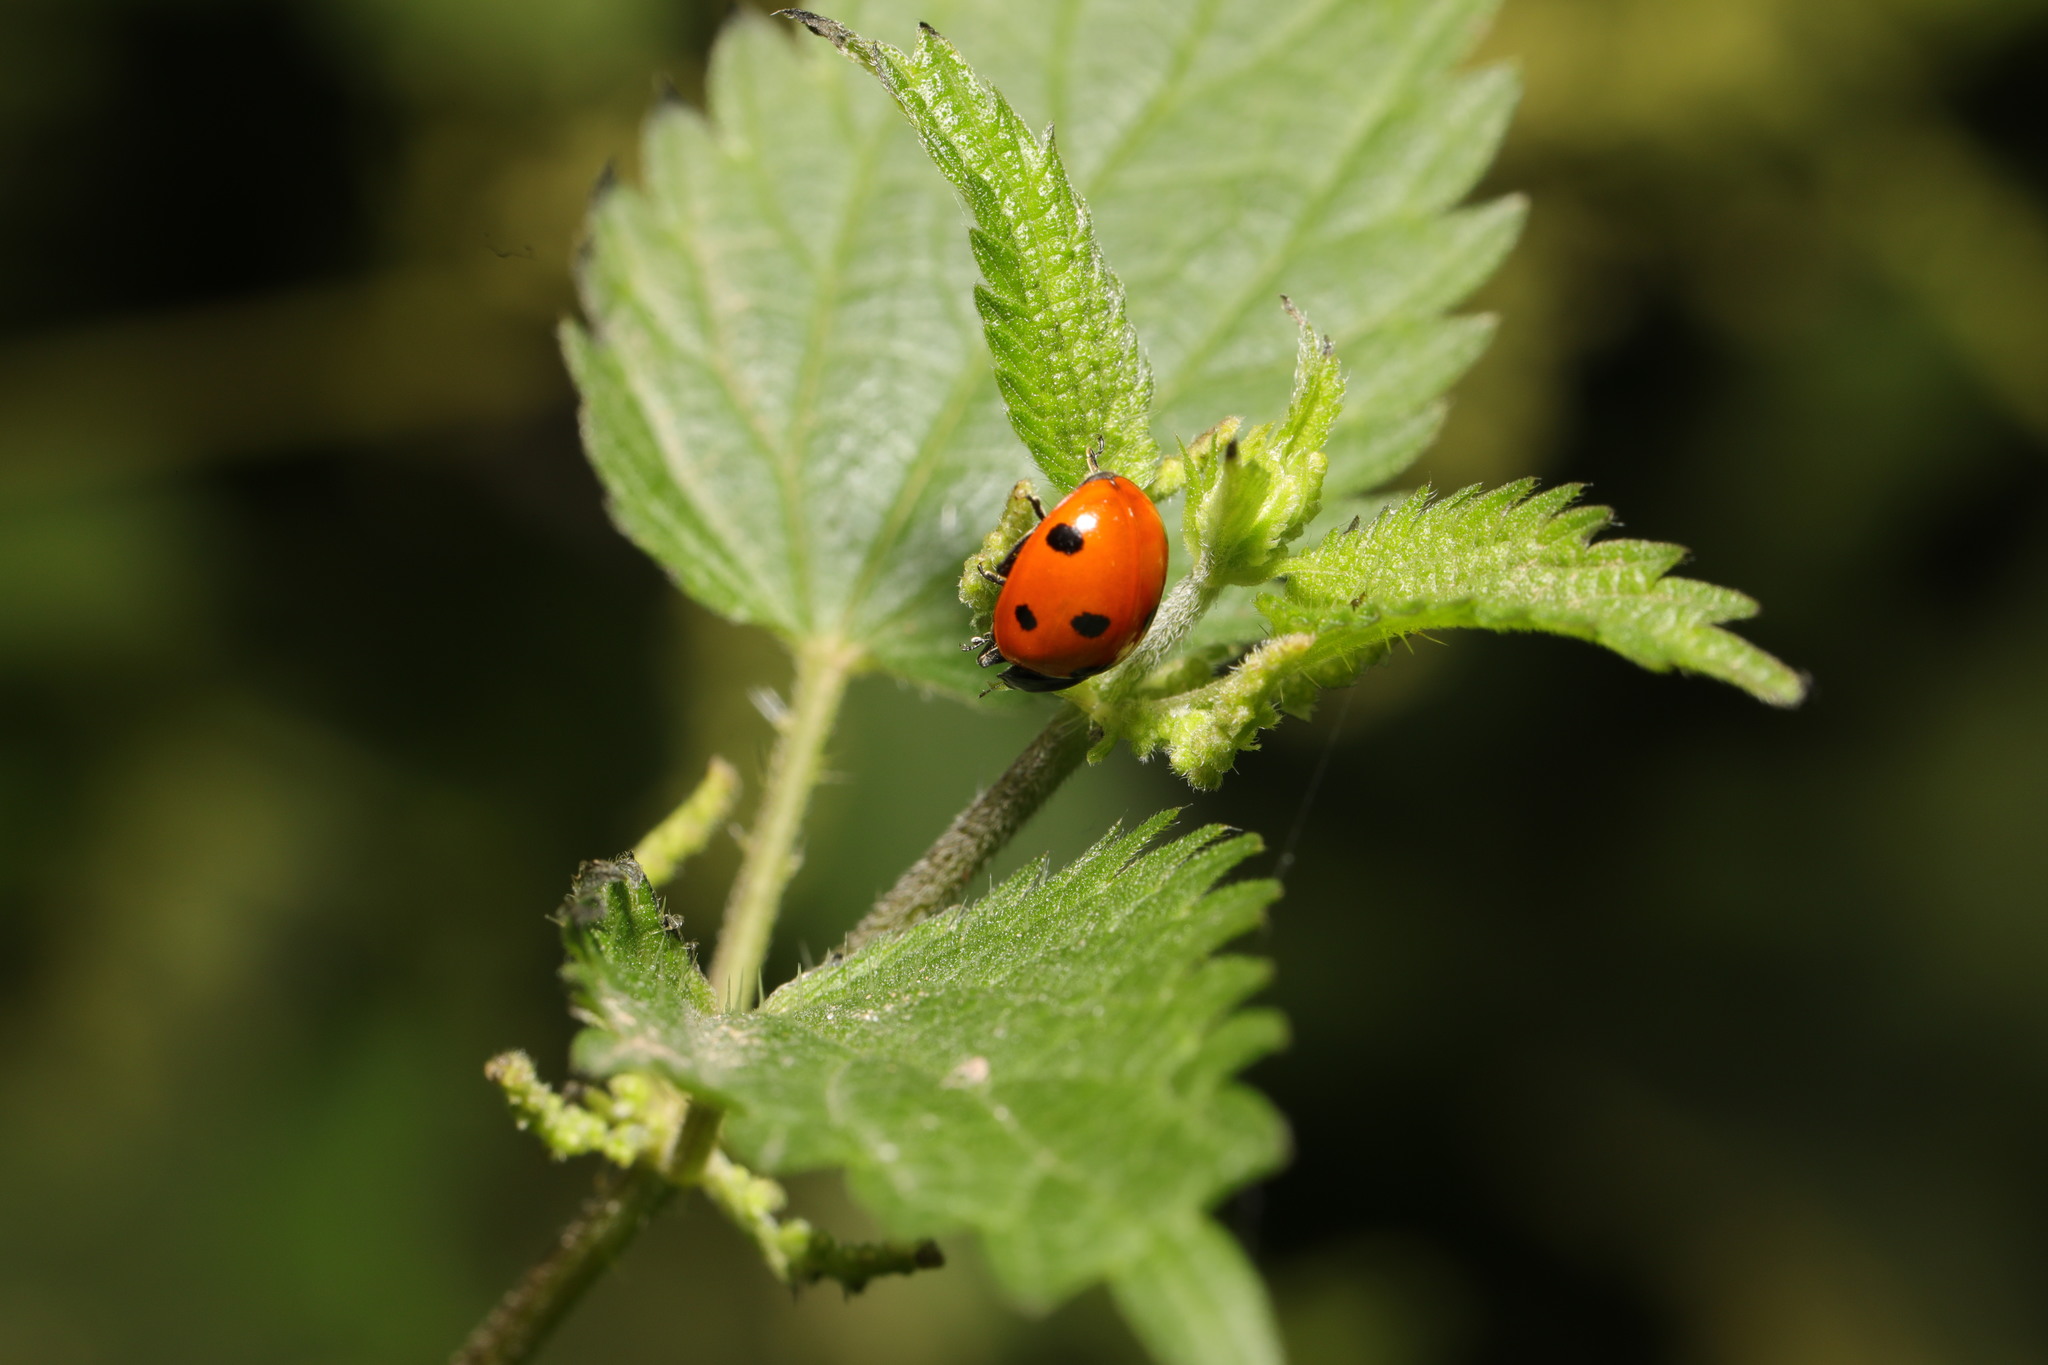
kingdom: Animalia
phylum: Arthropoda
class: Insecta
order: Coleoptera
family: Coccinellidae
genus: Coccinella
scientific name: Coccinella septempunctata
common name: Sevenspotted lady beetle
